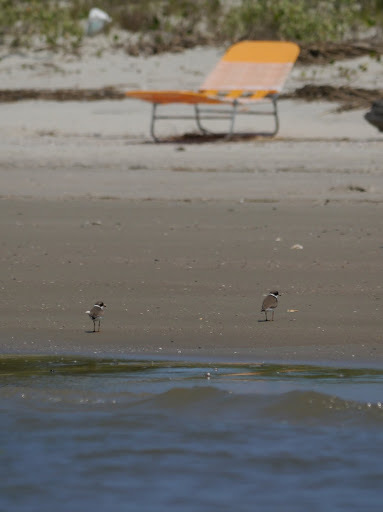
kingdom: Animalia
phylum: Chordata
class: Aves
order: Charadriiformes
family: Charadriidae
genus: Charadrius
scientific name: Charadrius semipalmatus
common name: Semipalmated plover
